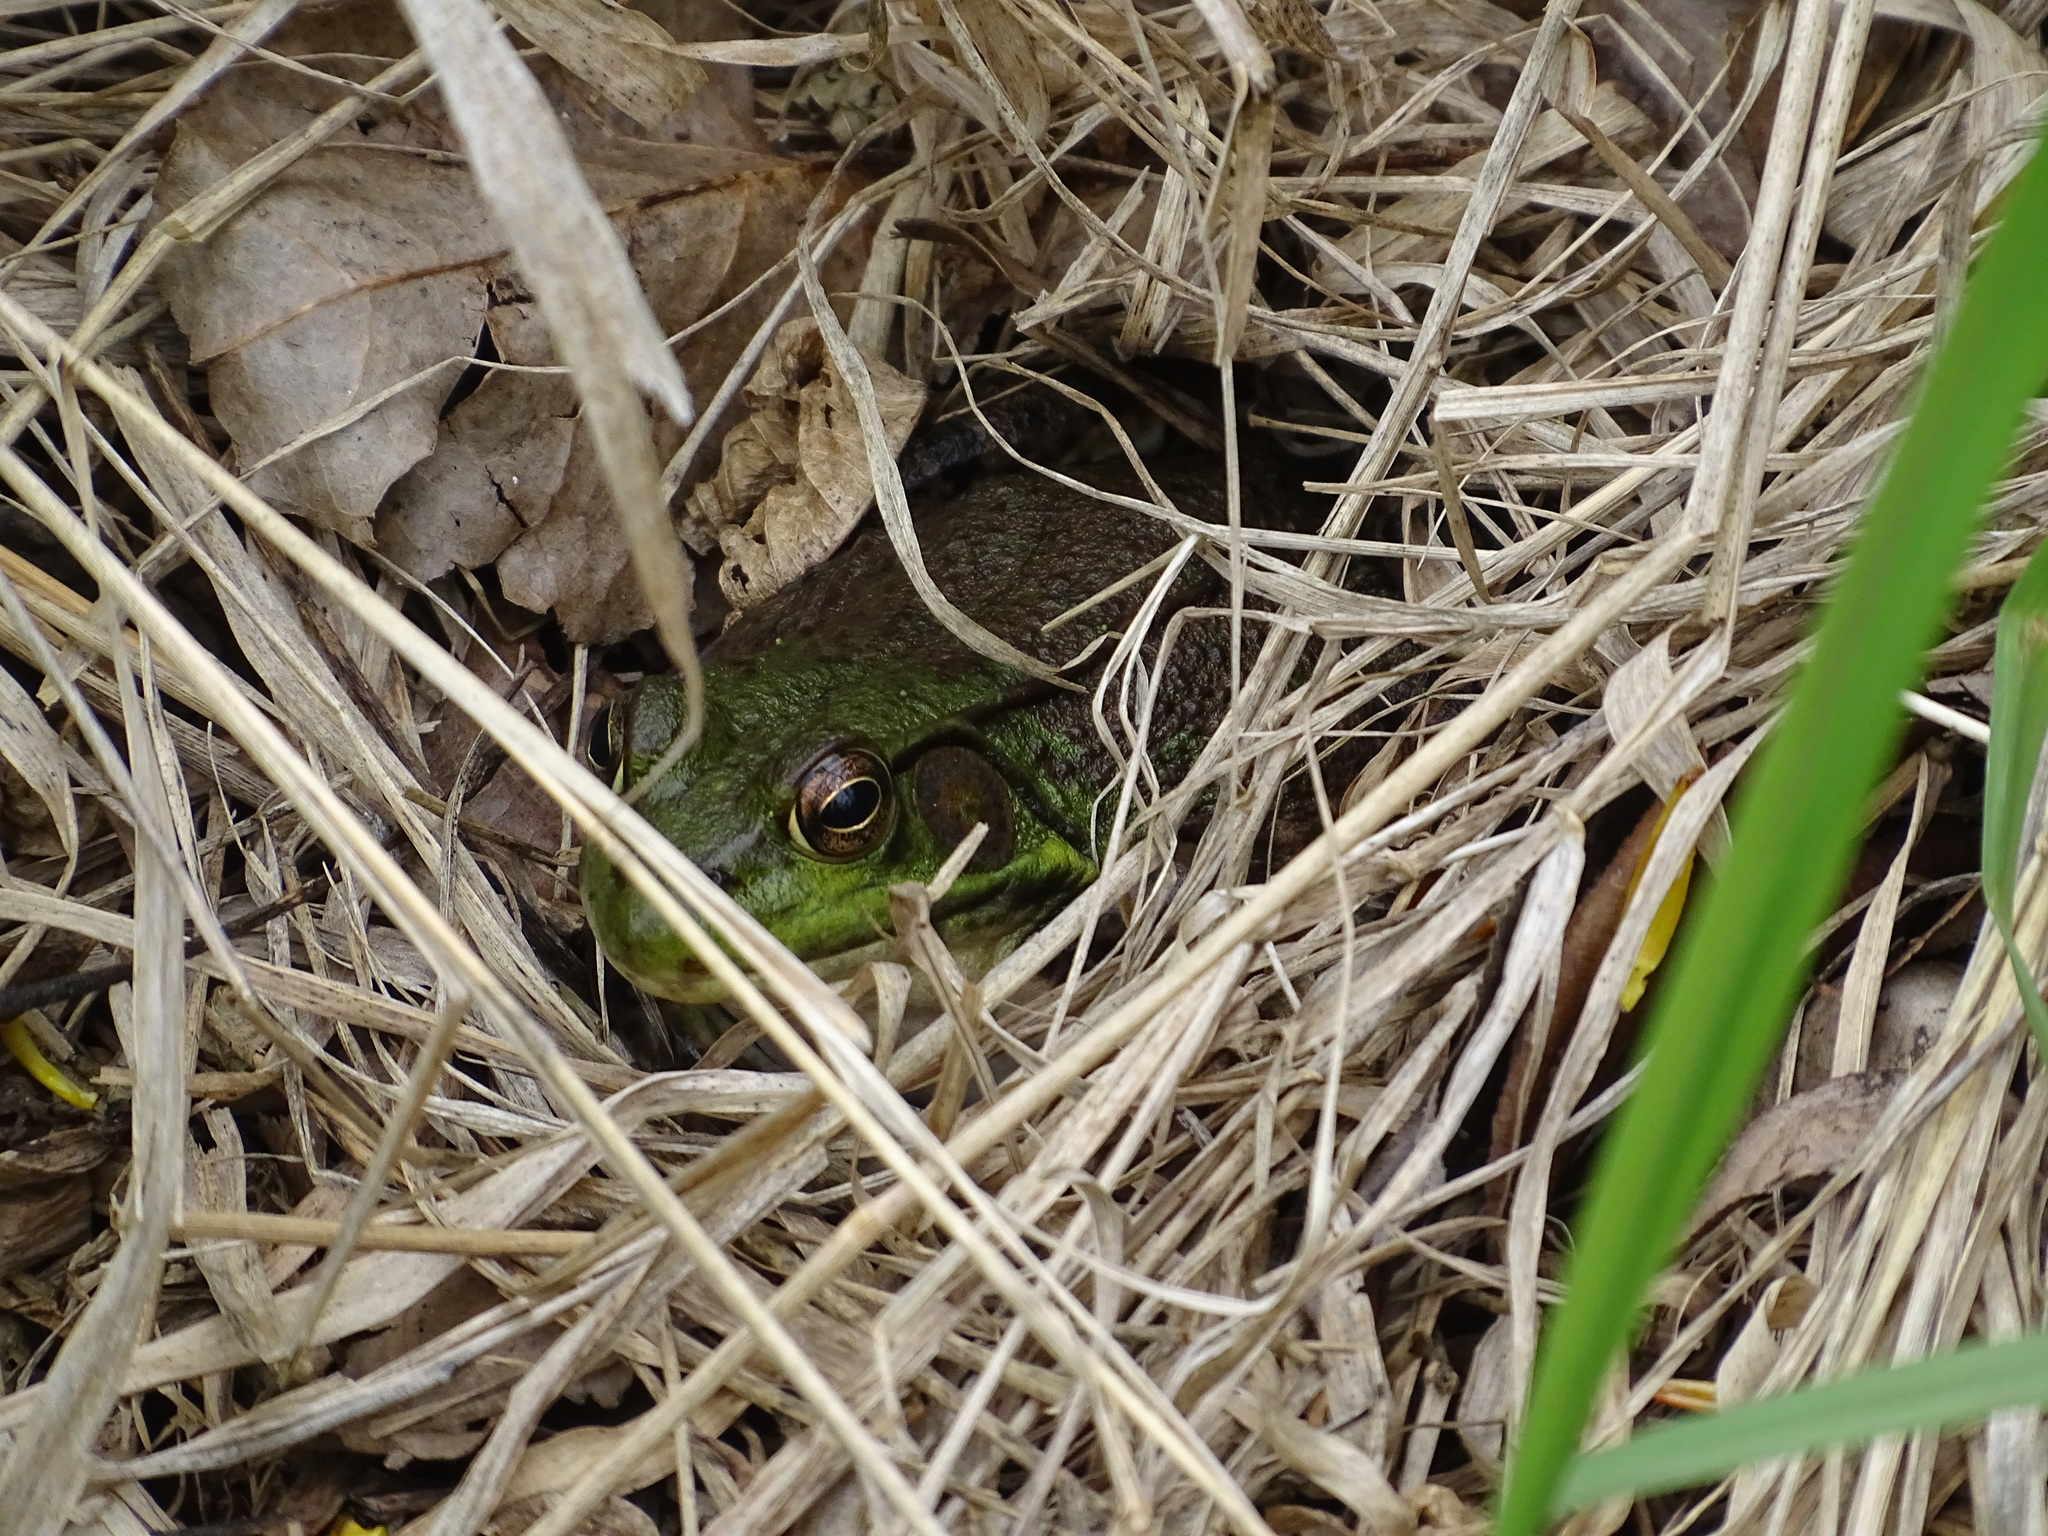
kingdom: Animalia
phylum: Chordata
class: Amphibia
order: Anura
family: Ranidae
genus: Lithobates
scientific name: Lithobates clamitans
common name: Green frog
